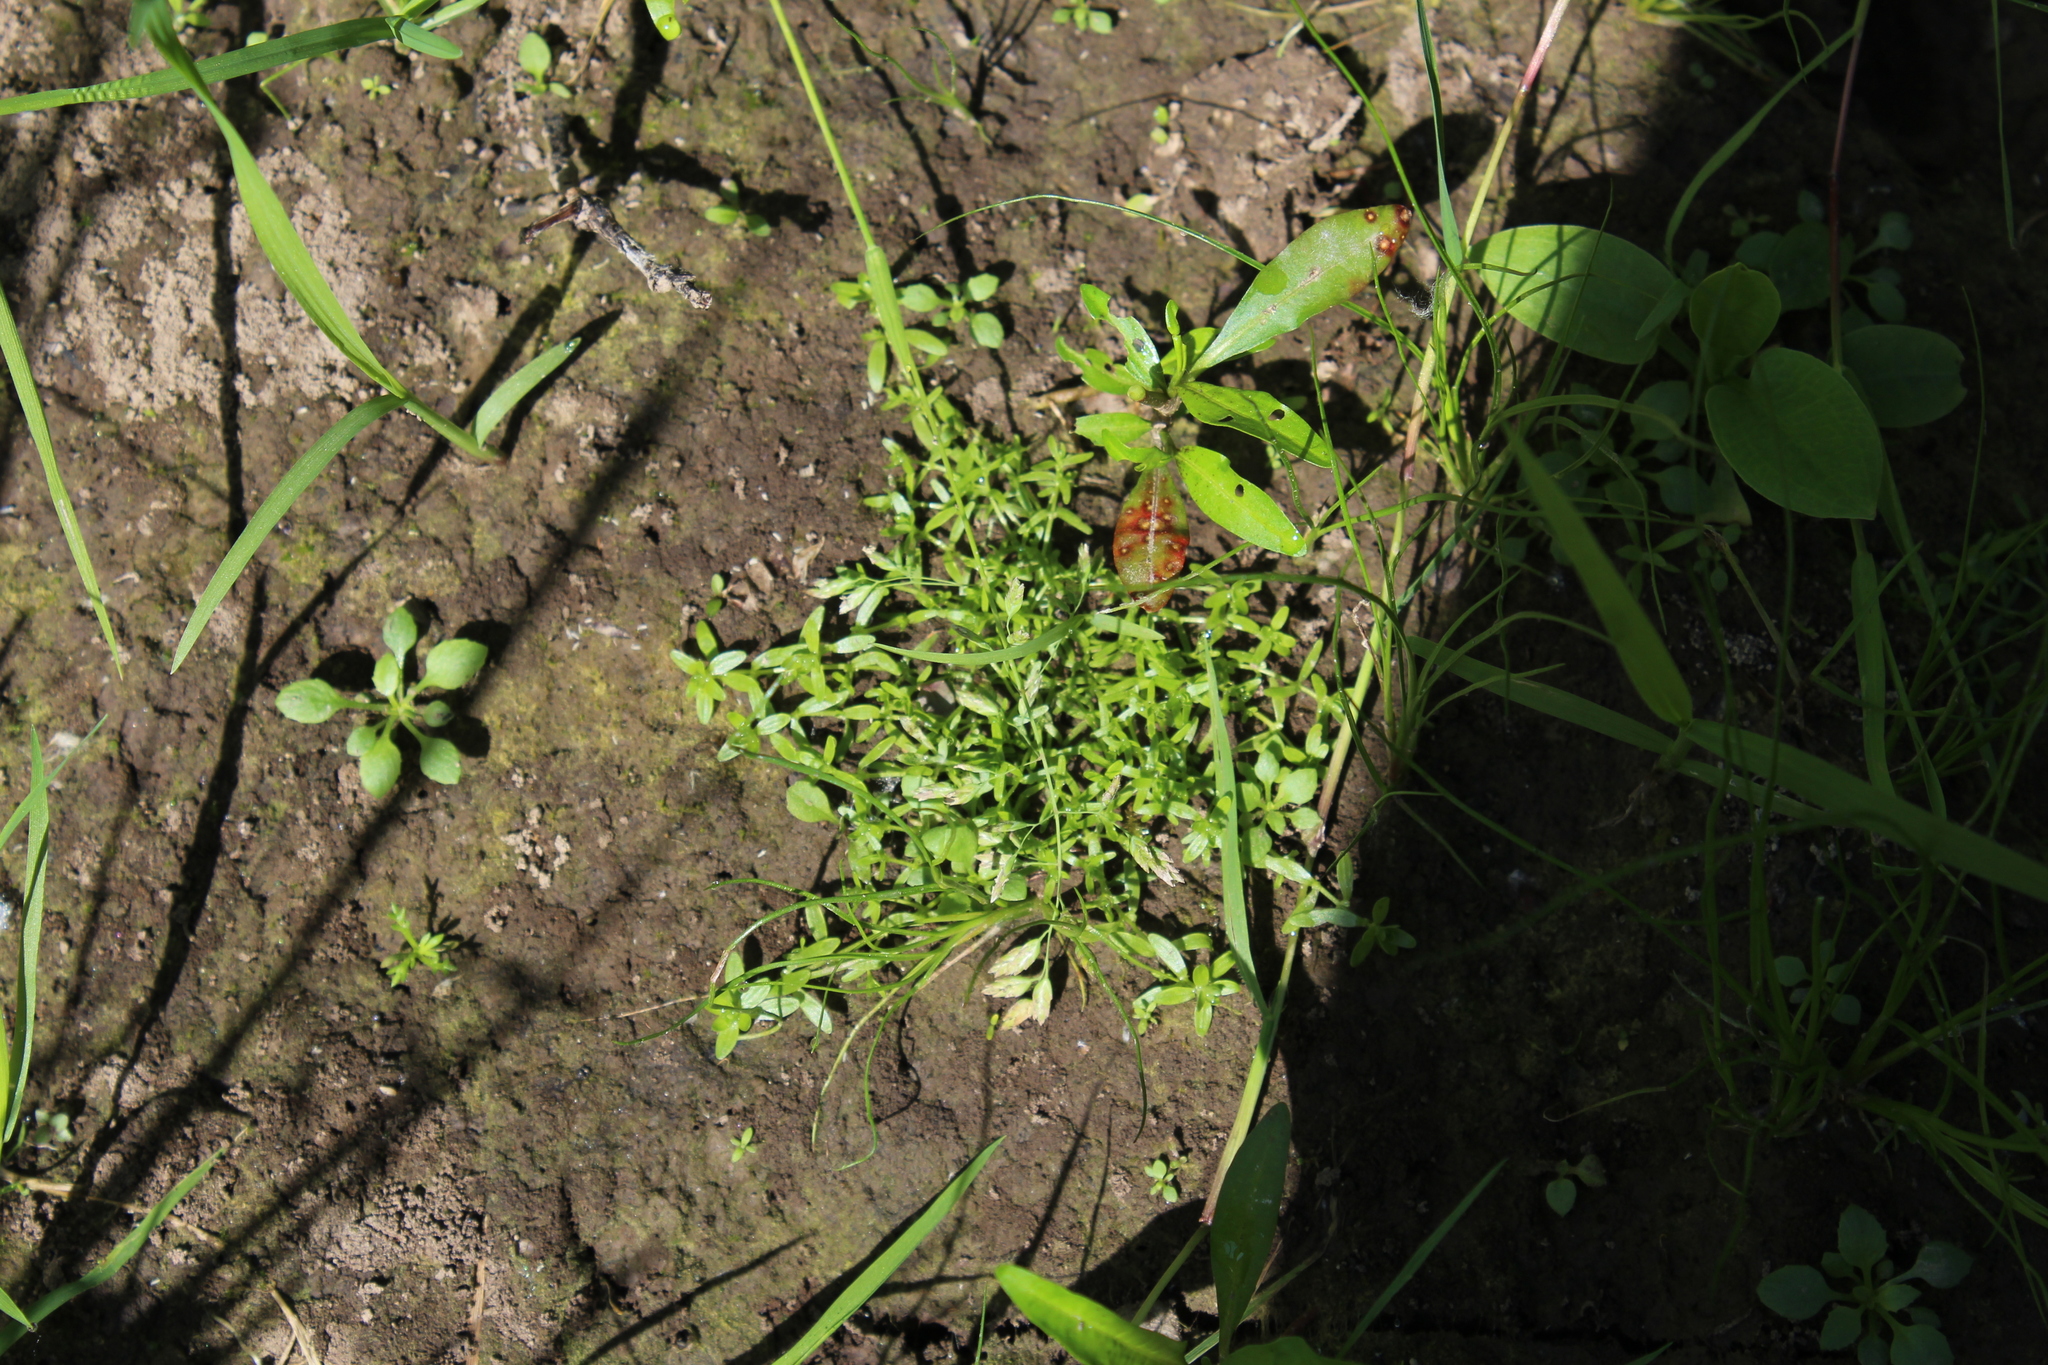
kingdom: Plantae
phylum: Tracheophyta
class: Magnoliopsida
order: Lamiales
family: Plantaginaceae
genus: Callitriche
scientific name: Callitriche palustris
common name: Spring water-starwort
